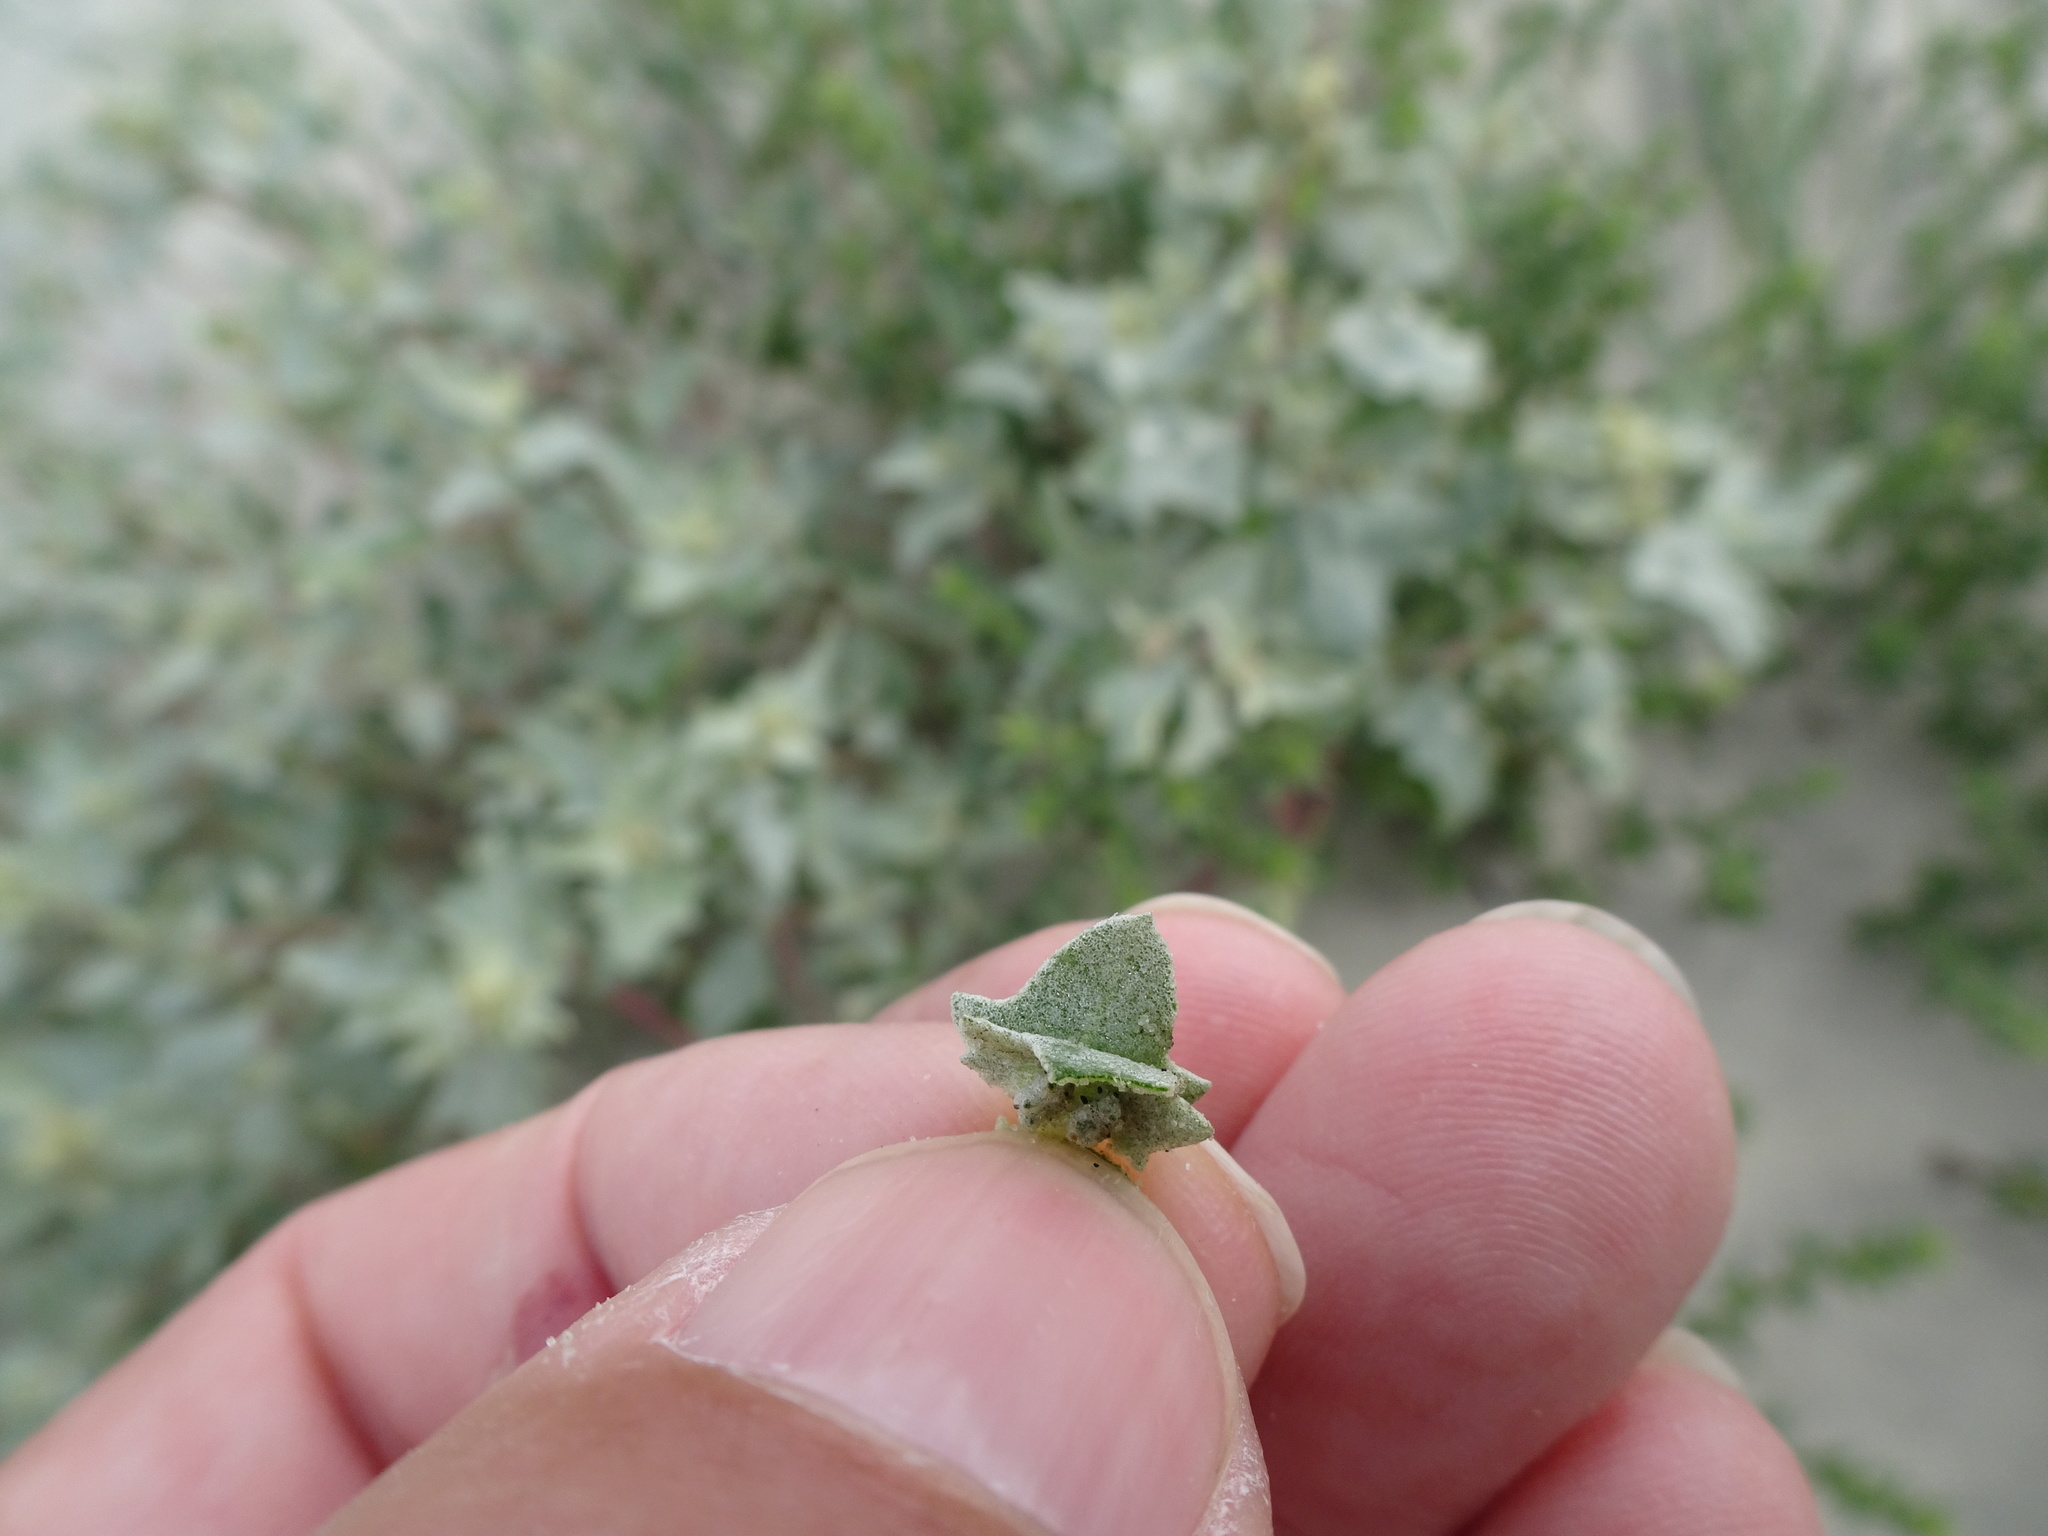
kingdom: Plantae
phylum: Tracheophyta
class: Magnoliopsida
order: Caryophyllales
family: Amaranthaceae
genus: Atriplex
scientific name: Atriplex laciniata
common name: Frosted orache
